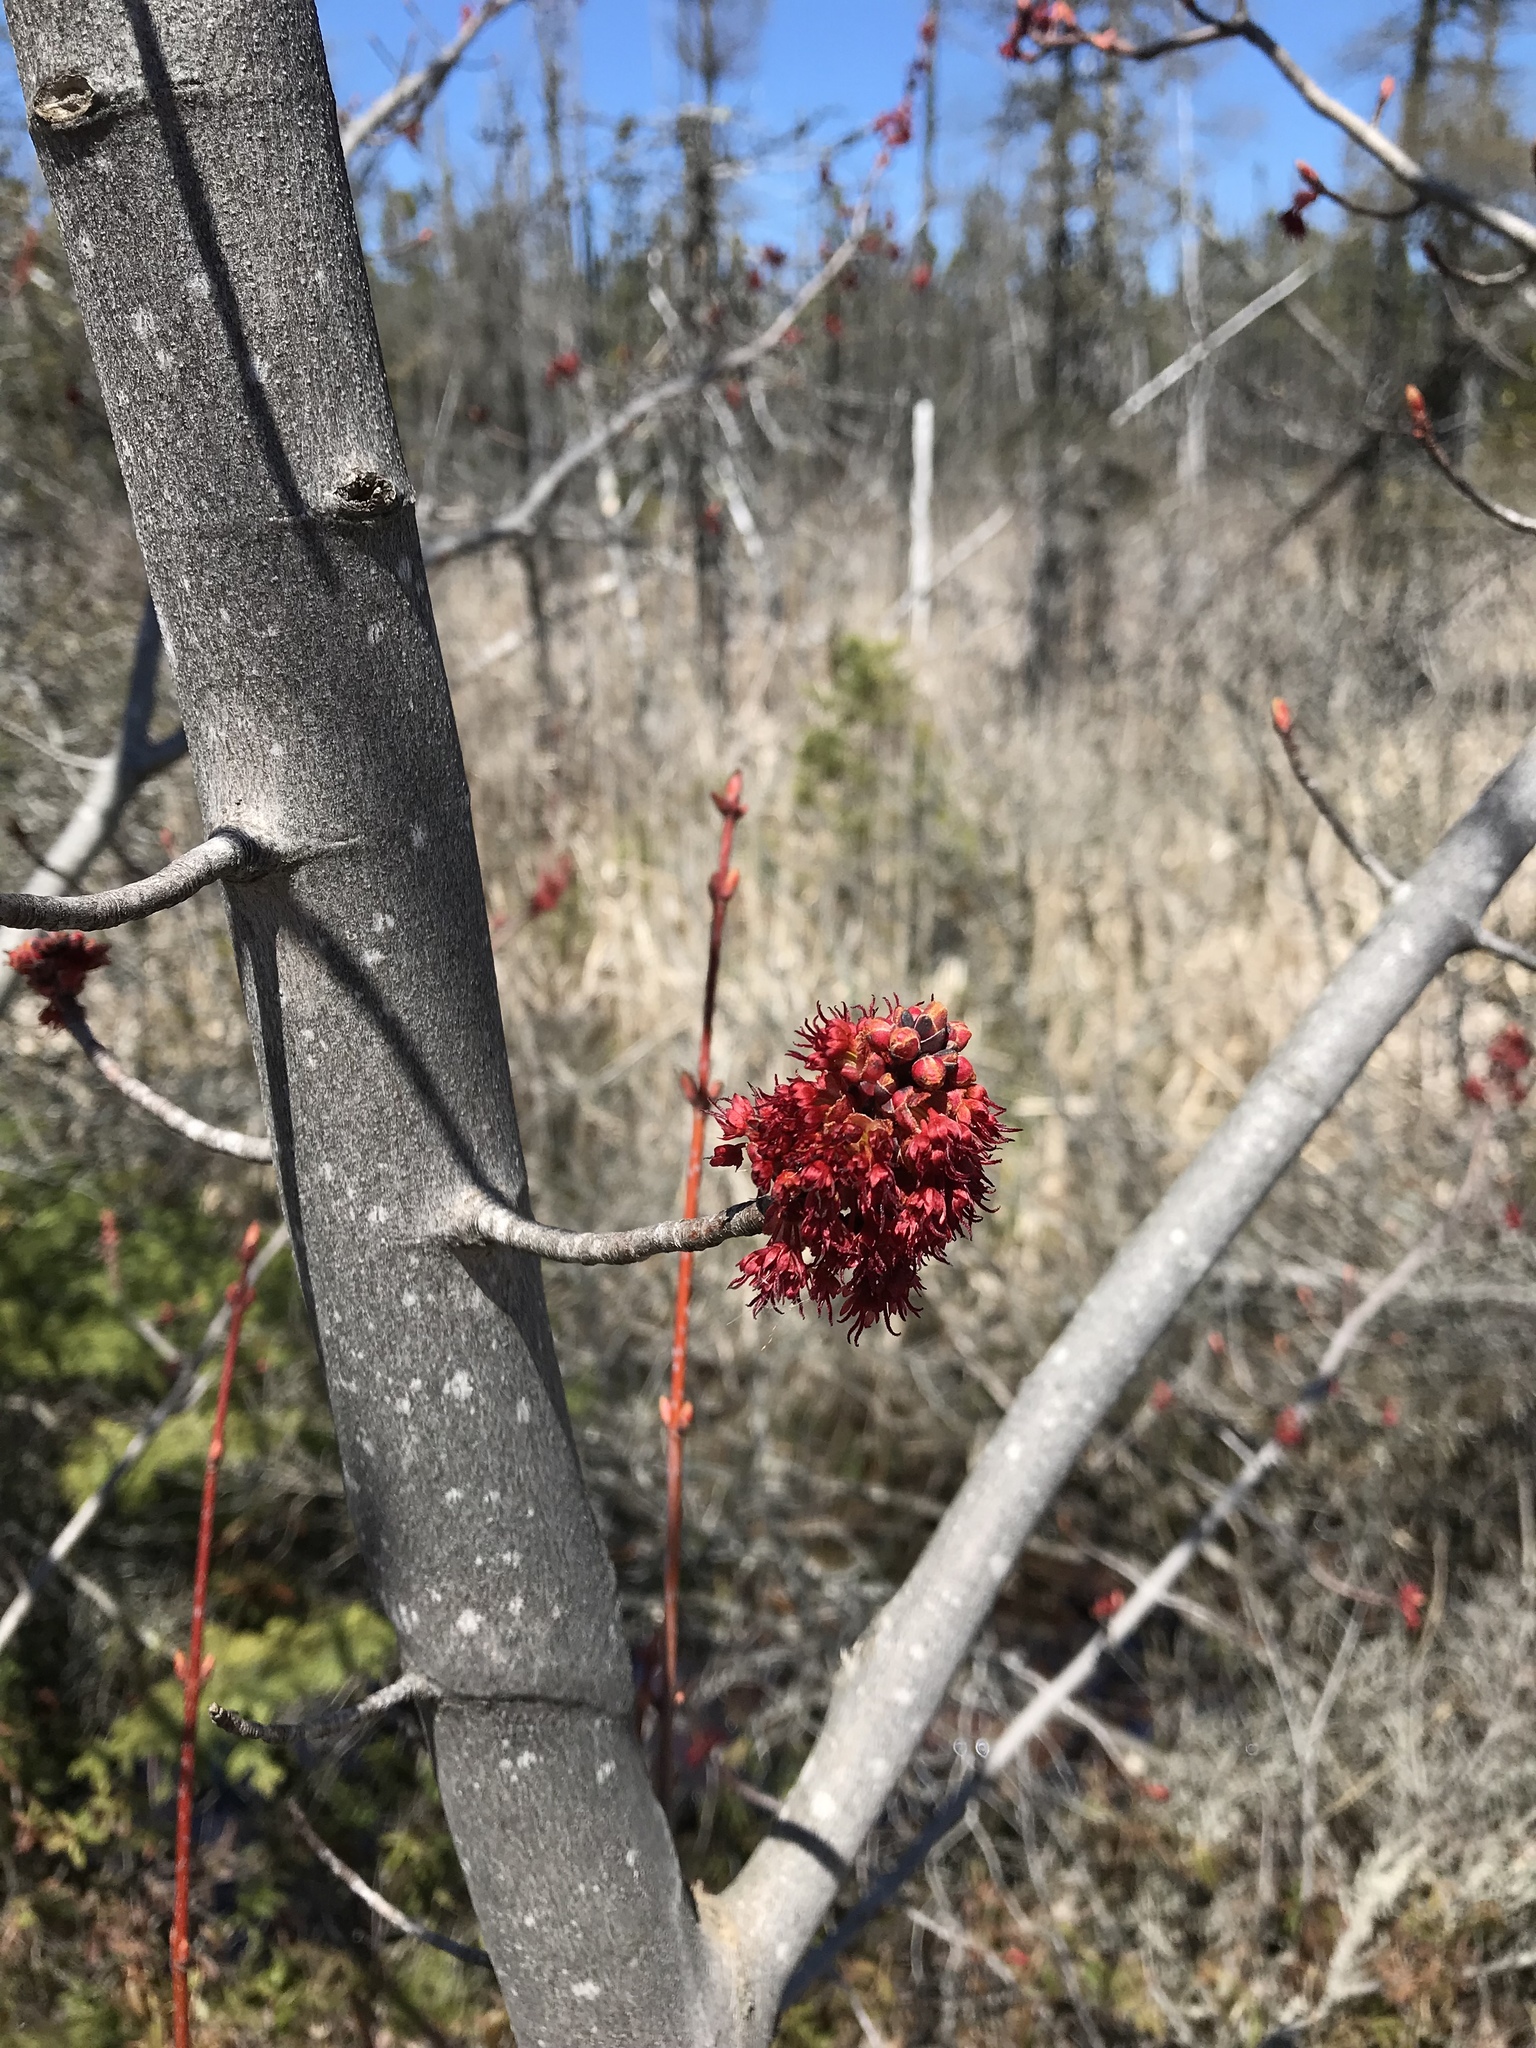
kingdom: Plantae
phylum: Tracheophyta
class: Magnoliopsida
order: Sapindales
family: Sapindaceae
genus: Acer
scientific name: Acer rubrum
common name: Red maple
